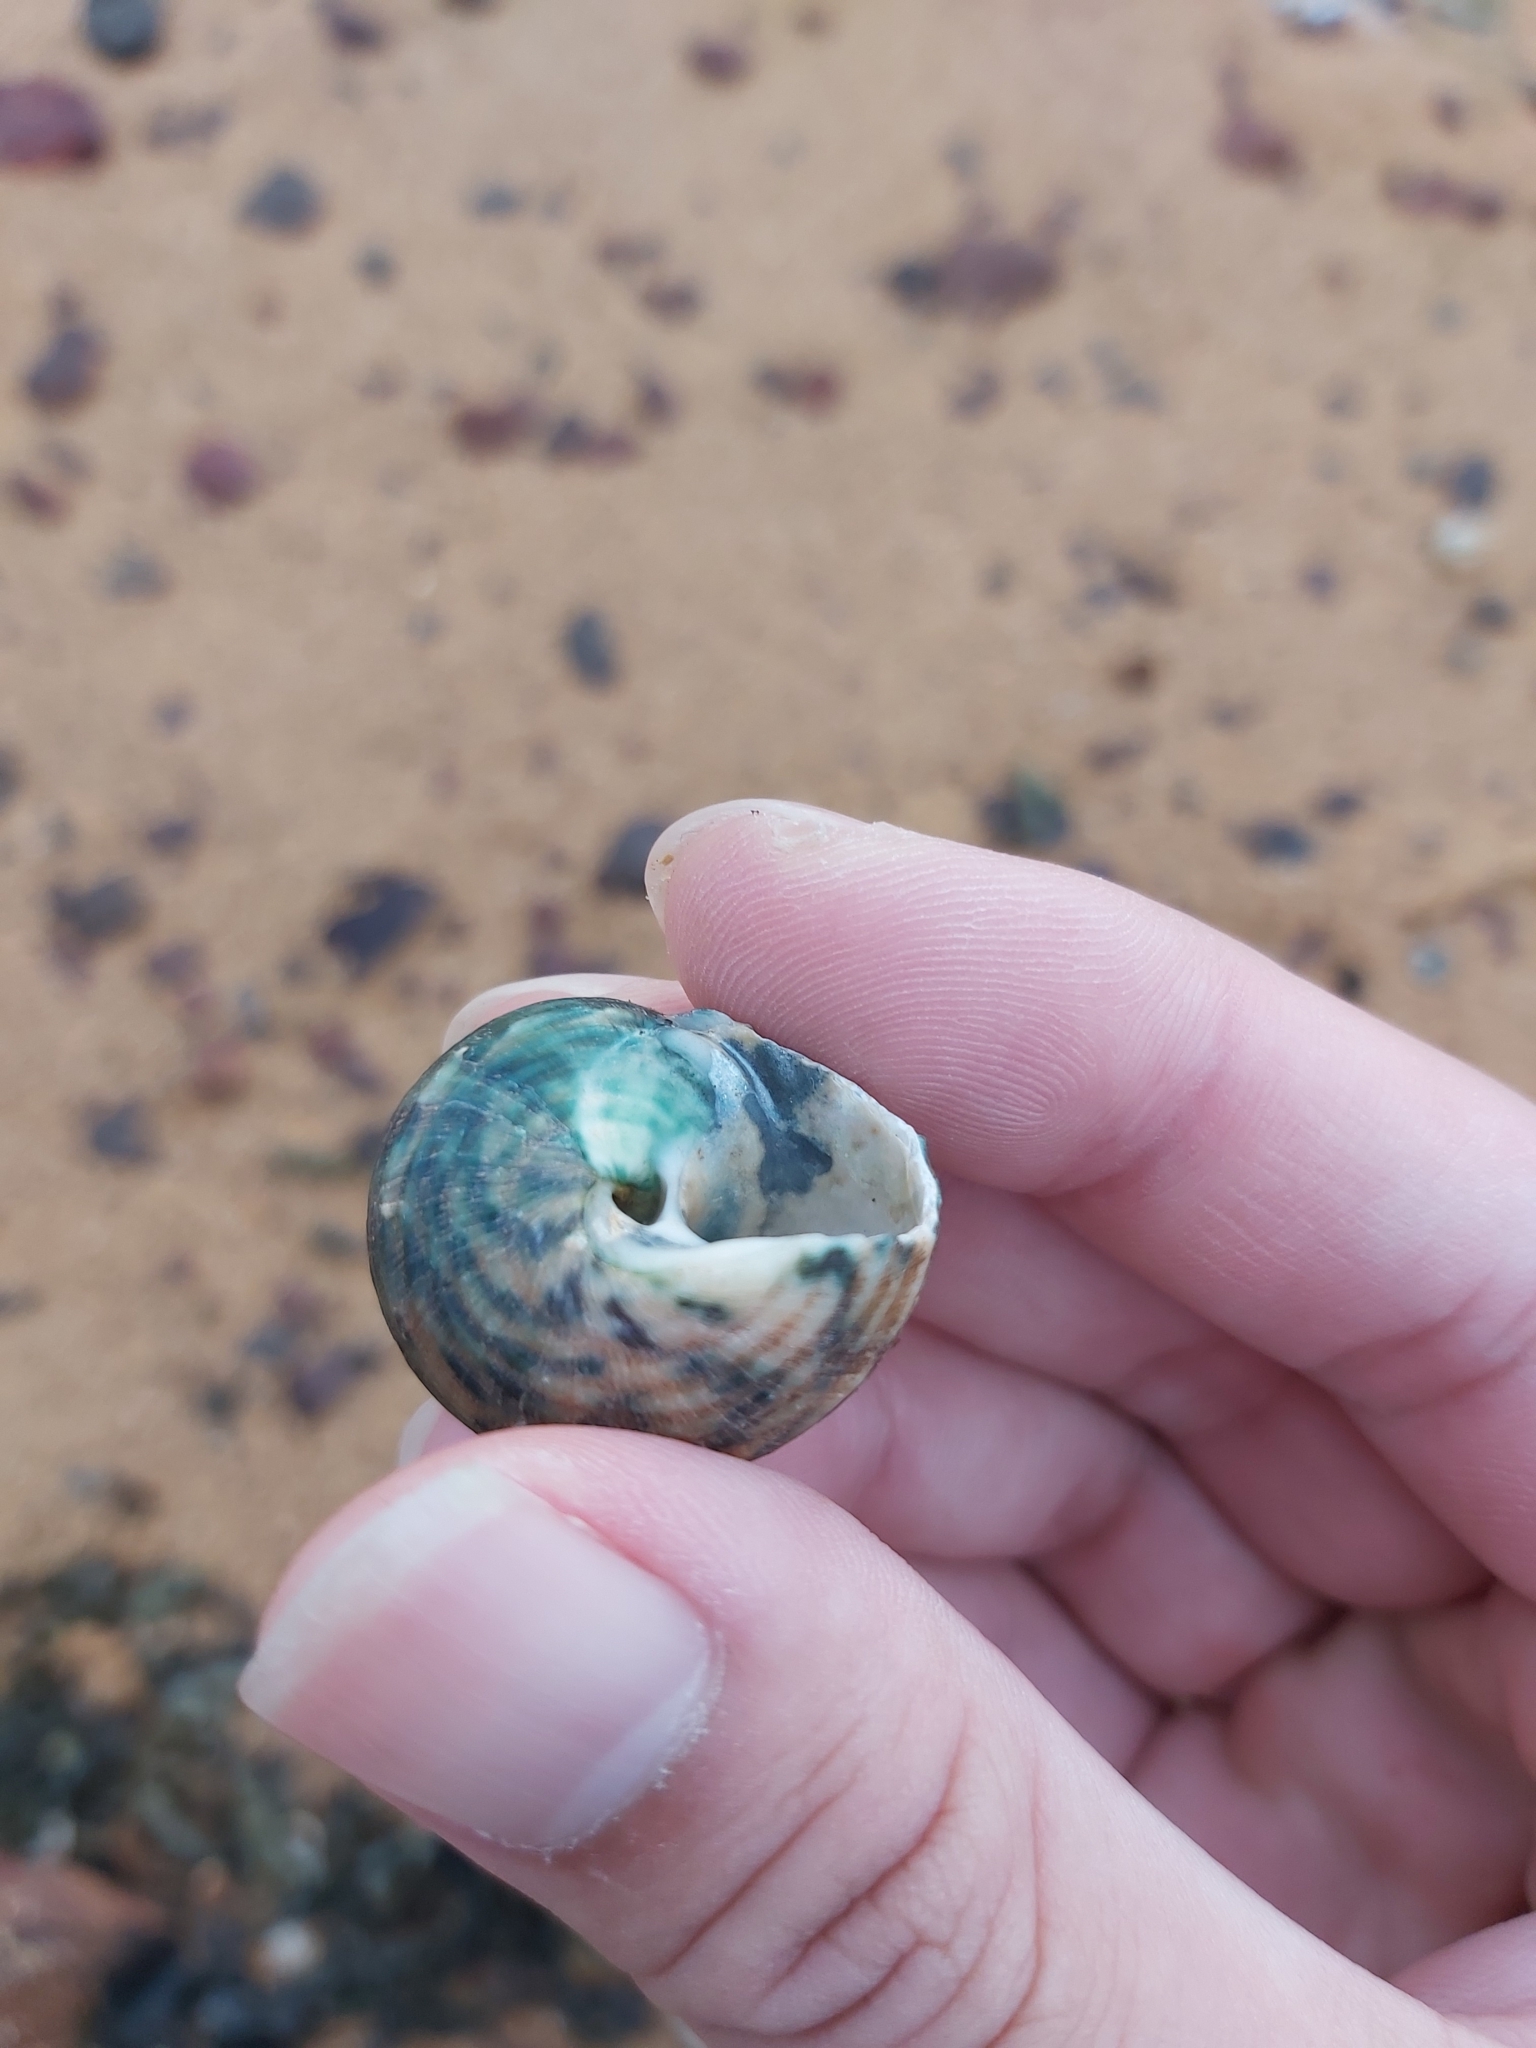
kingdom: Animalia
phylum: Mollusca
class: Gastropoda
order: Trochida
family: Turbinidae
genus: Lunella
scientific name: Lunella undulata
